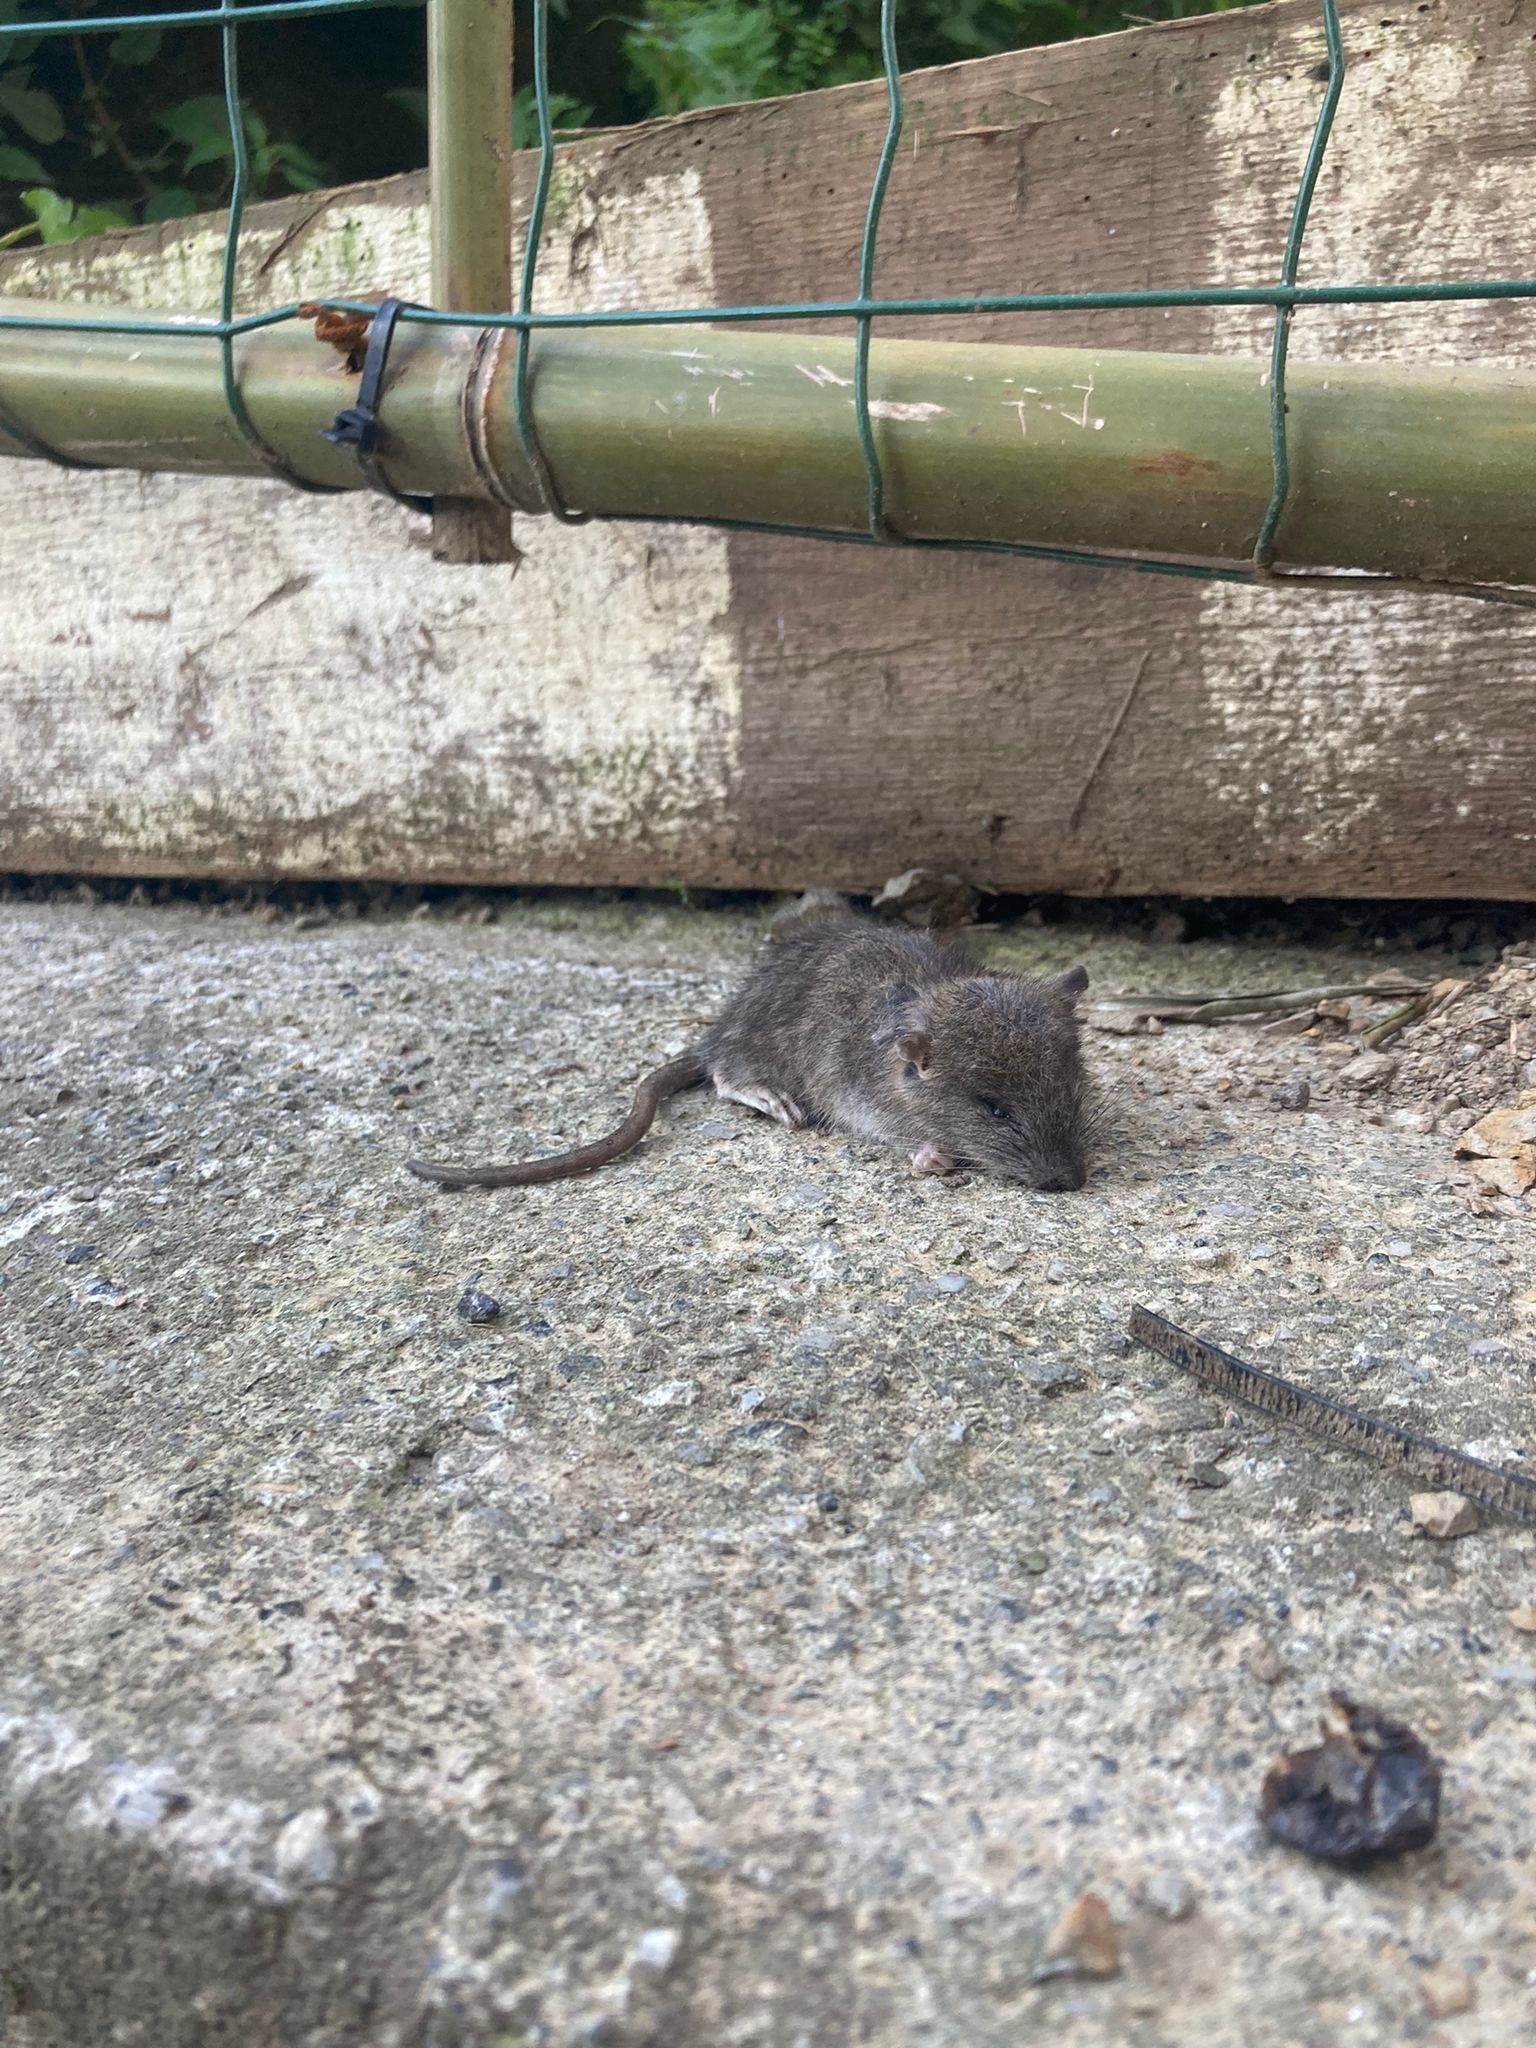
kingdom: Animalia
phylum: Chordata
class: Mammalia
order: Rodentia
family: Muridae
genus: Rattus
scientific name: Rattus rattus
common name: Black rat
